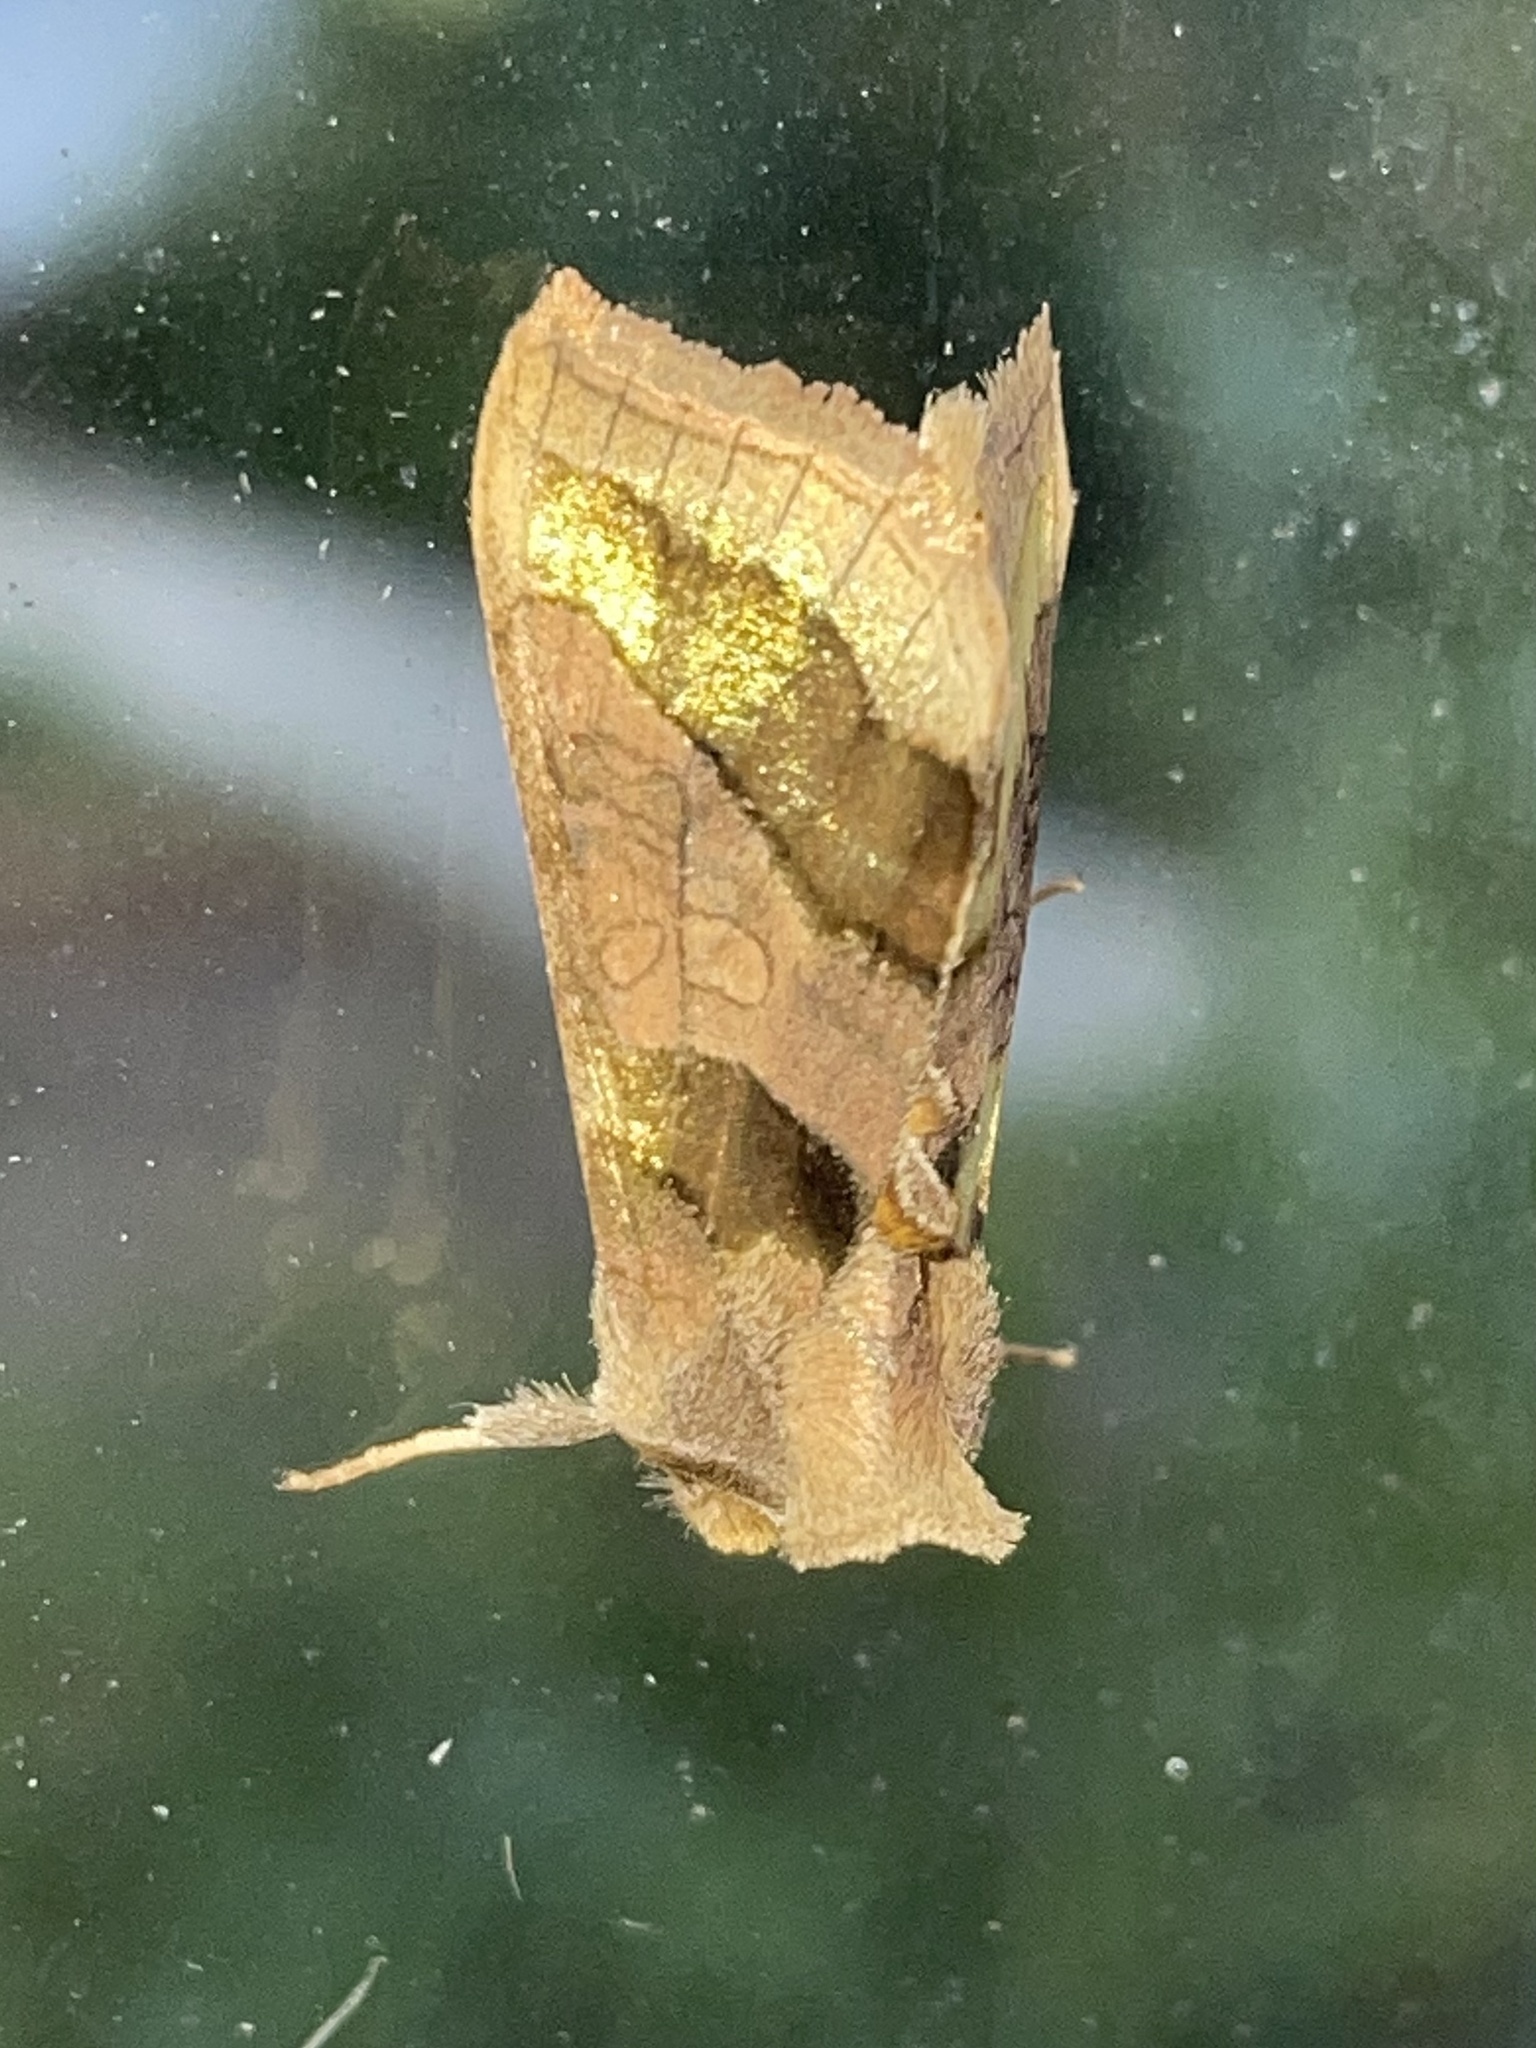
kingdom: Animalia
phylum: Arthropoda
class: Insecta
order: Lepidoptera
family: Noctuidae
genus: Diachrysia
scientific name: Diachrysia chrysitis
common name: Burnished brass
